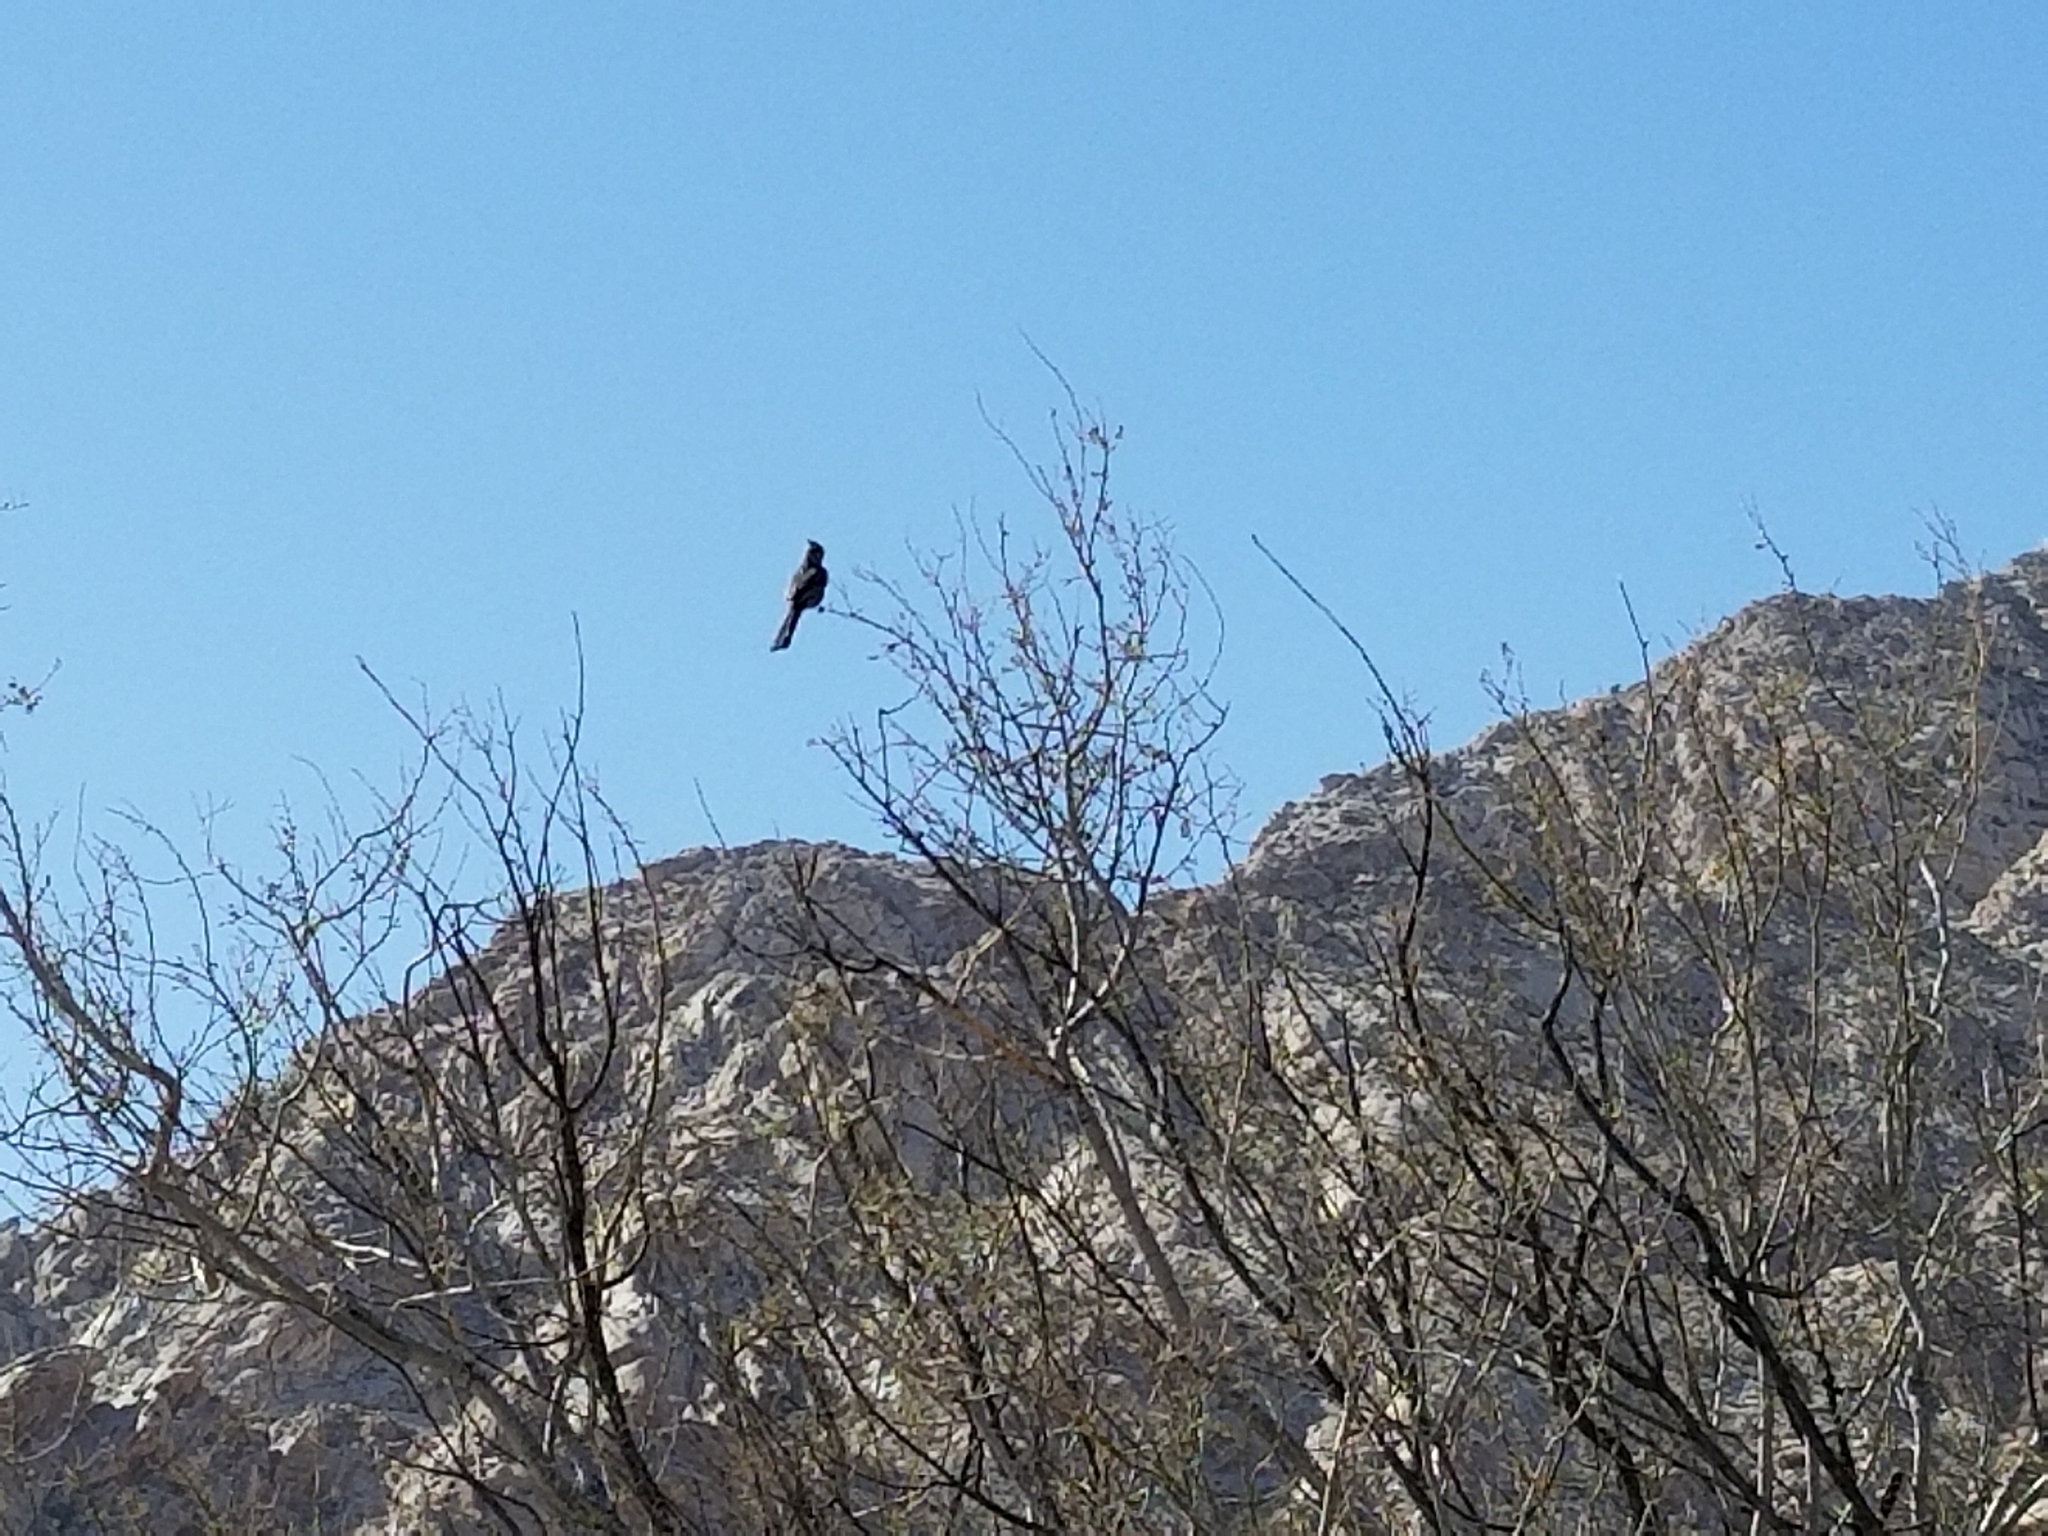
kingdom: Animalia
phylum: Chordata
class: Aves
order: Passeriformes
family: Ptilogonatidae
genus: Phainopepla
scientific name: Phainopepla nitens
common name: Phainopepla
